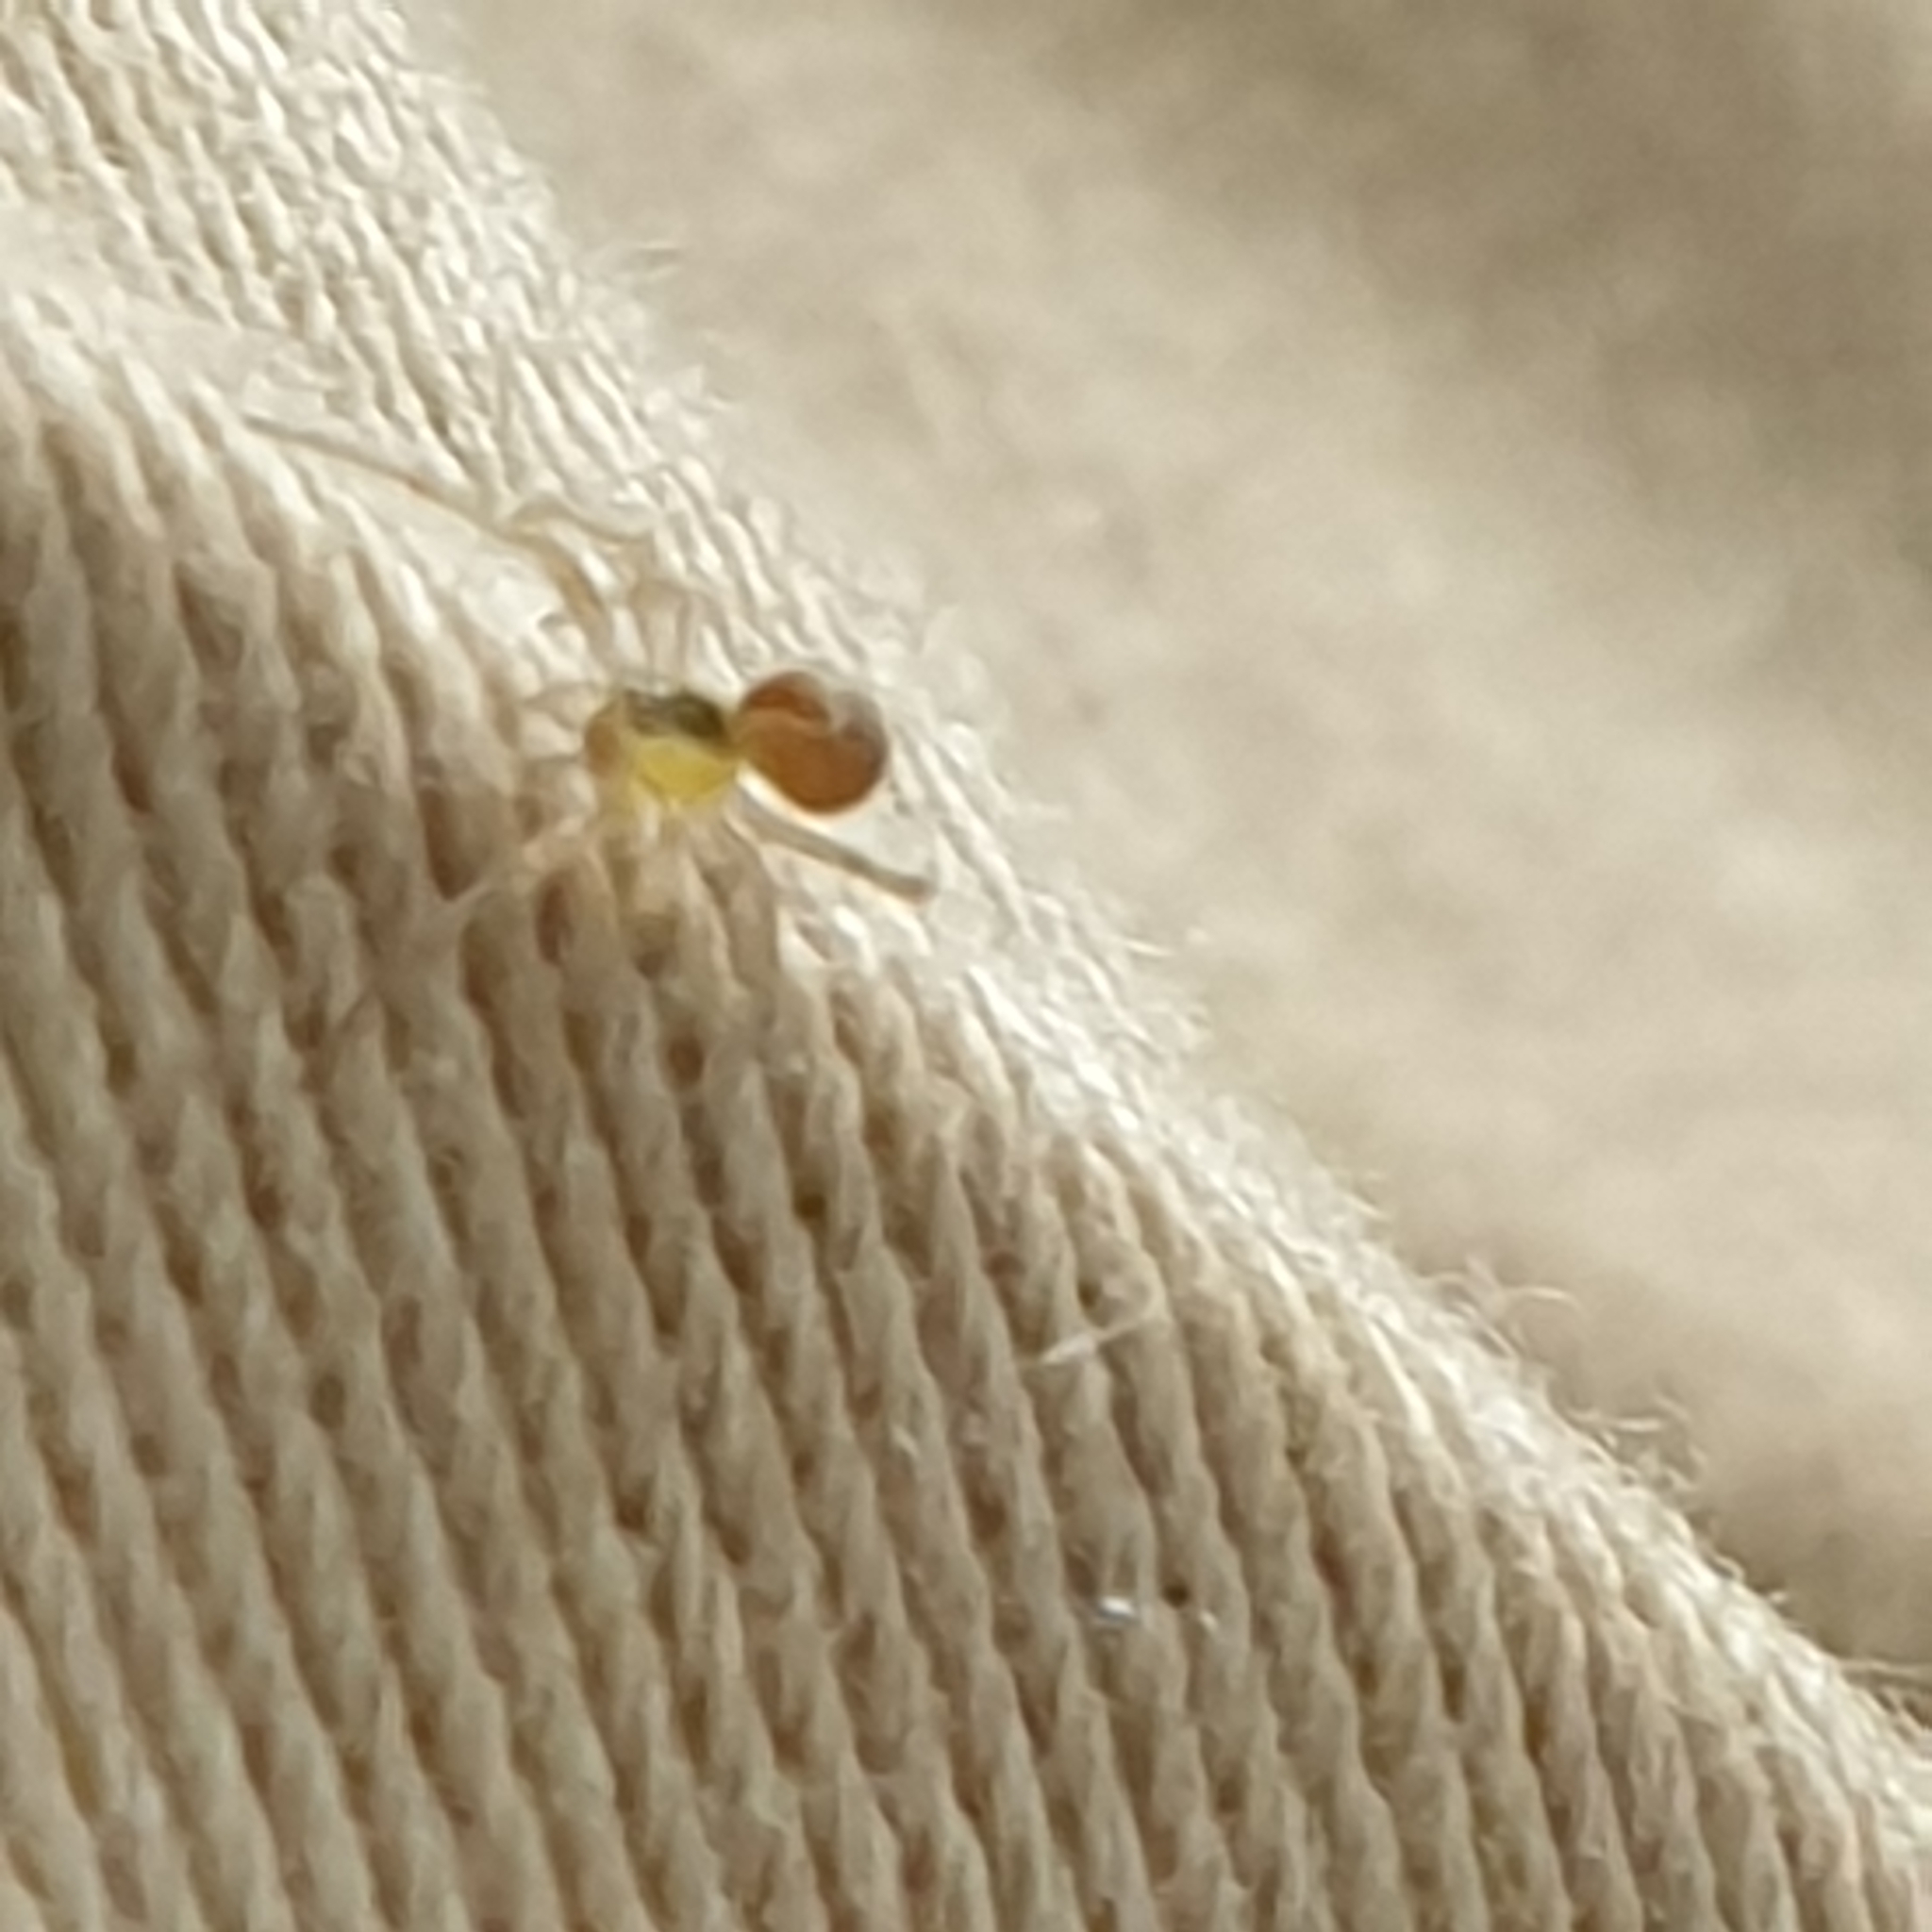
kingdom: Animalia
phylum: Arthropoda
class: Arachnida
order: Araneae
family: Theridiidae
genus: Anelosimus
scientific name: Anelosimus vittatus
